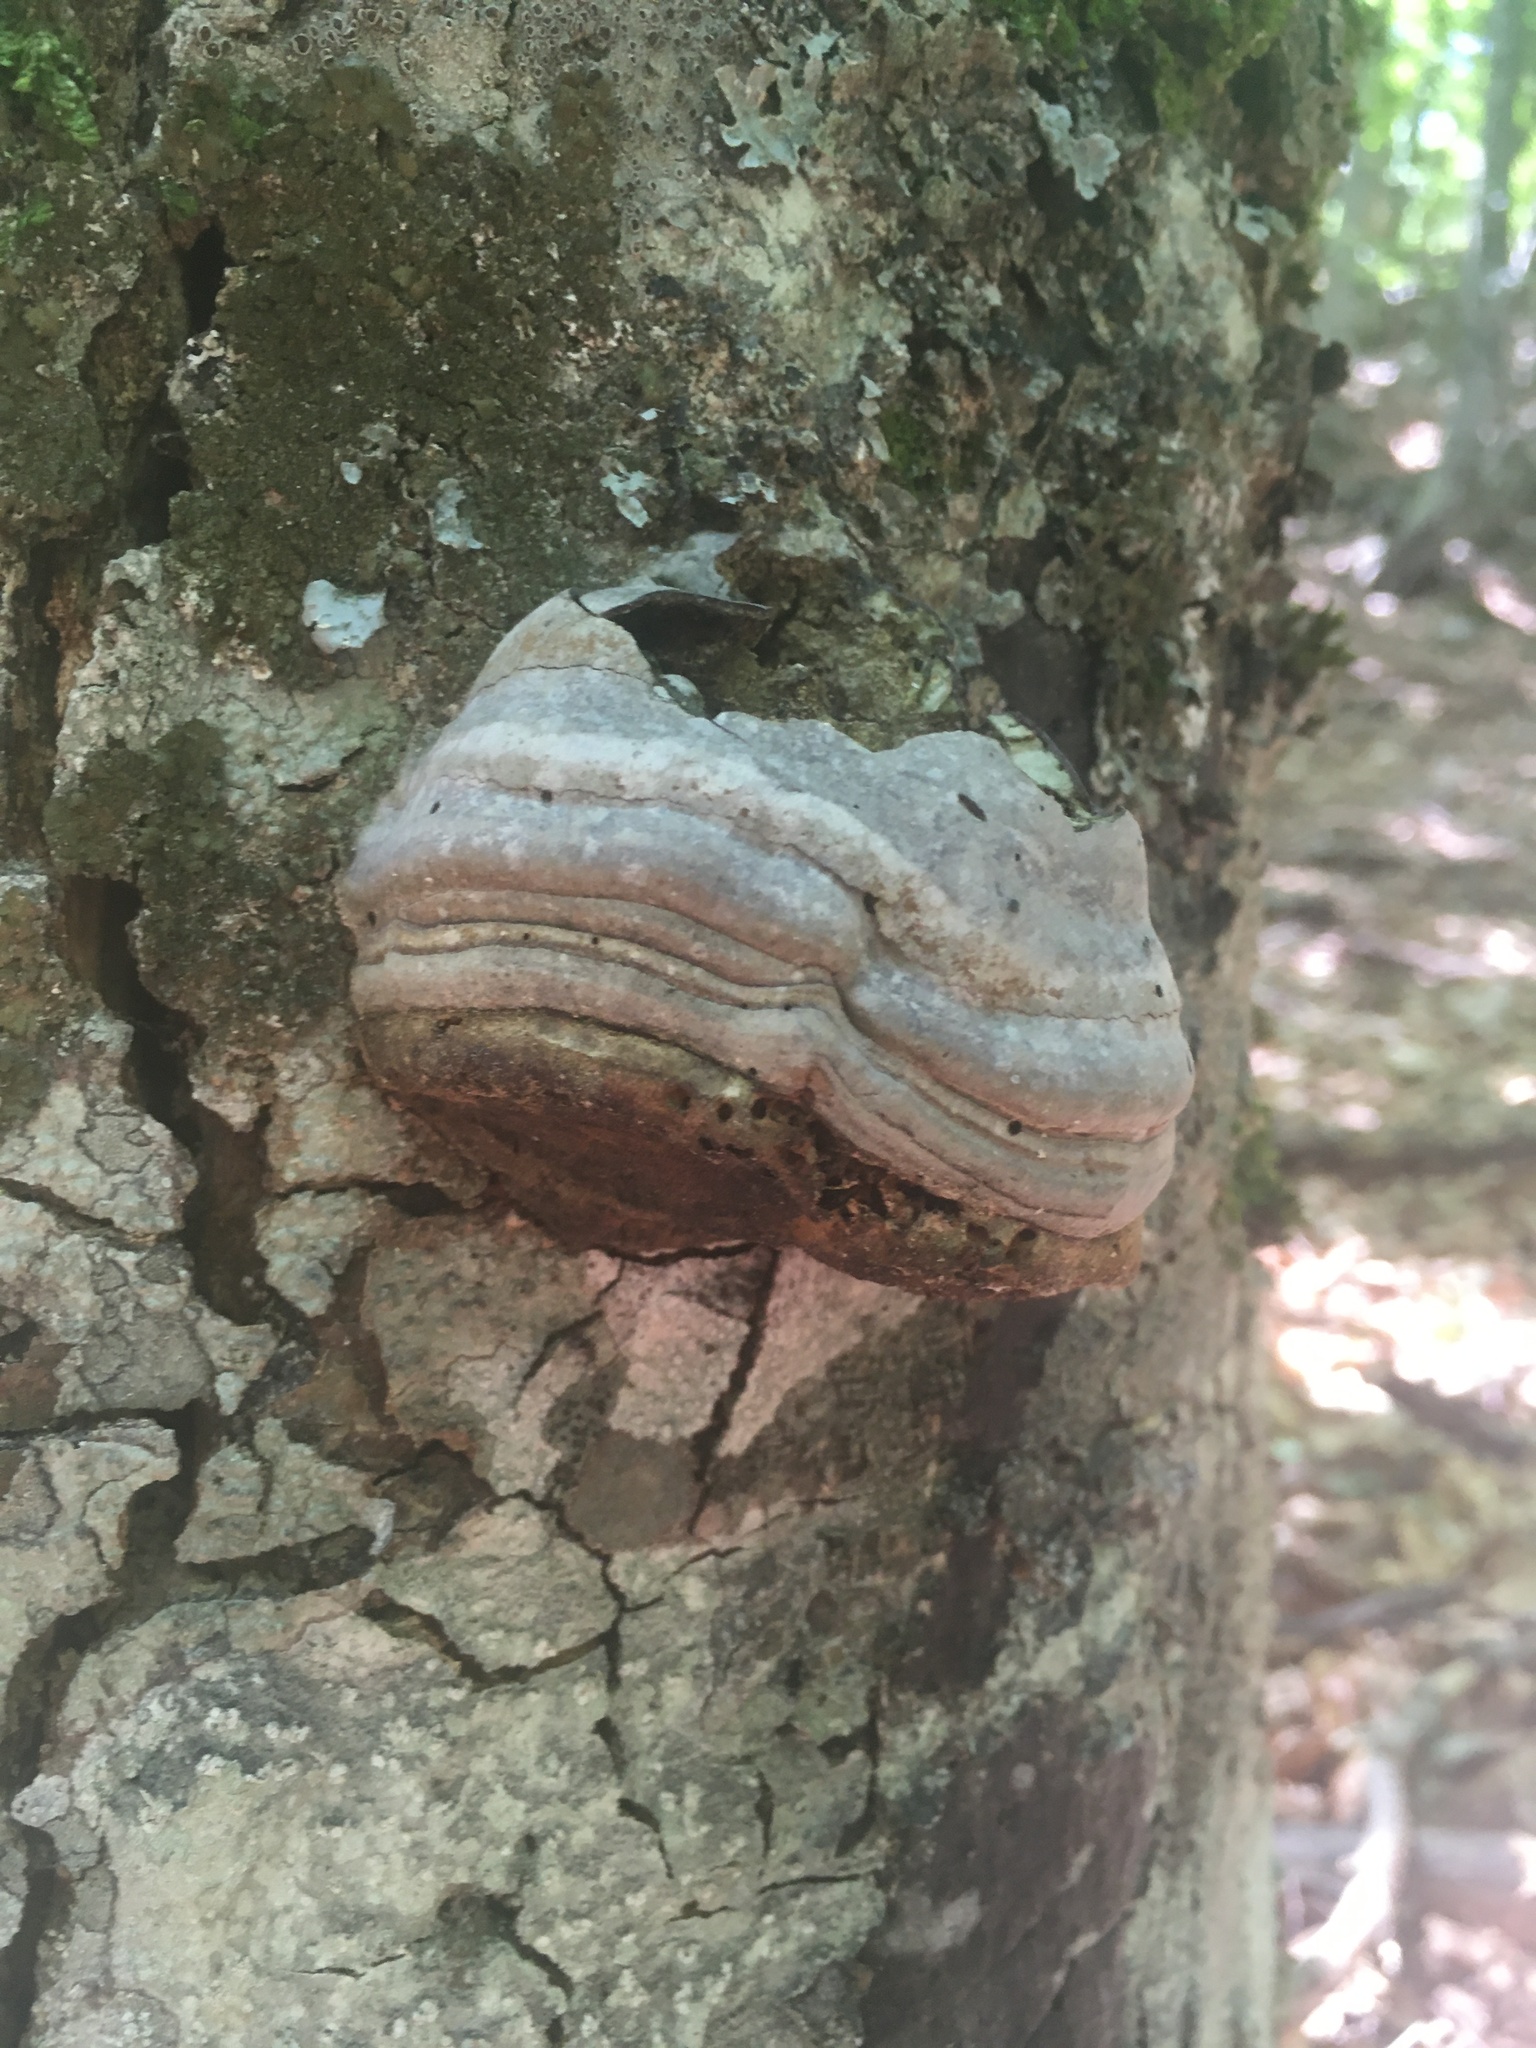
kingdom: Fungi
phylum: Basidiomycota
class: Agaricomycetes
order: Polyporales
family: Polyporaceae
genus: Fomes
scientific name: Fomes fomentarius
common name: Hoof fungus
